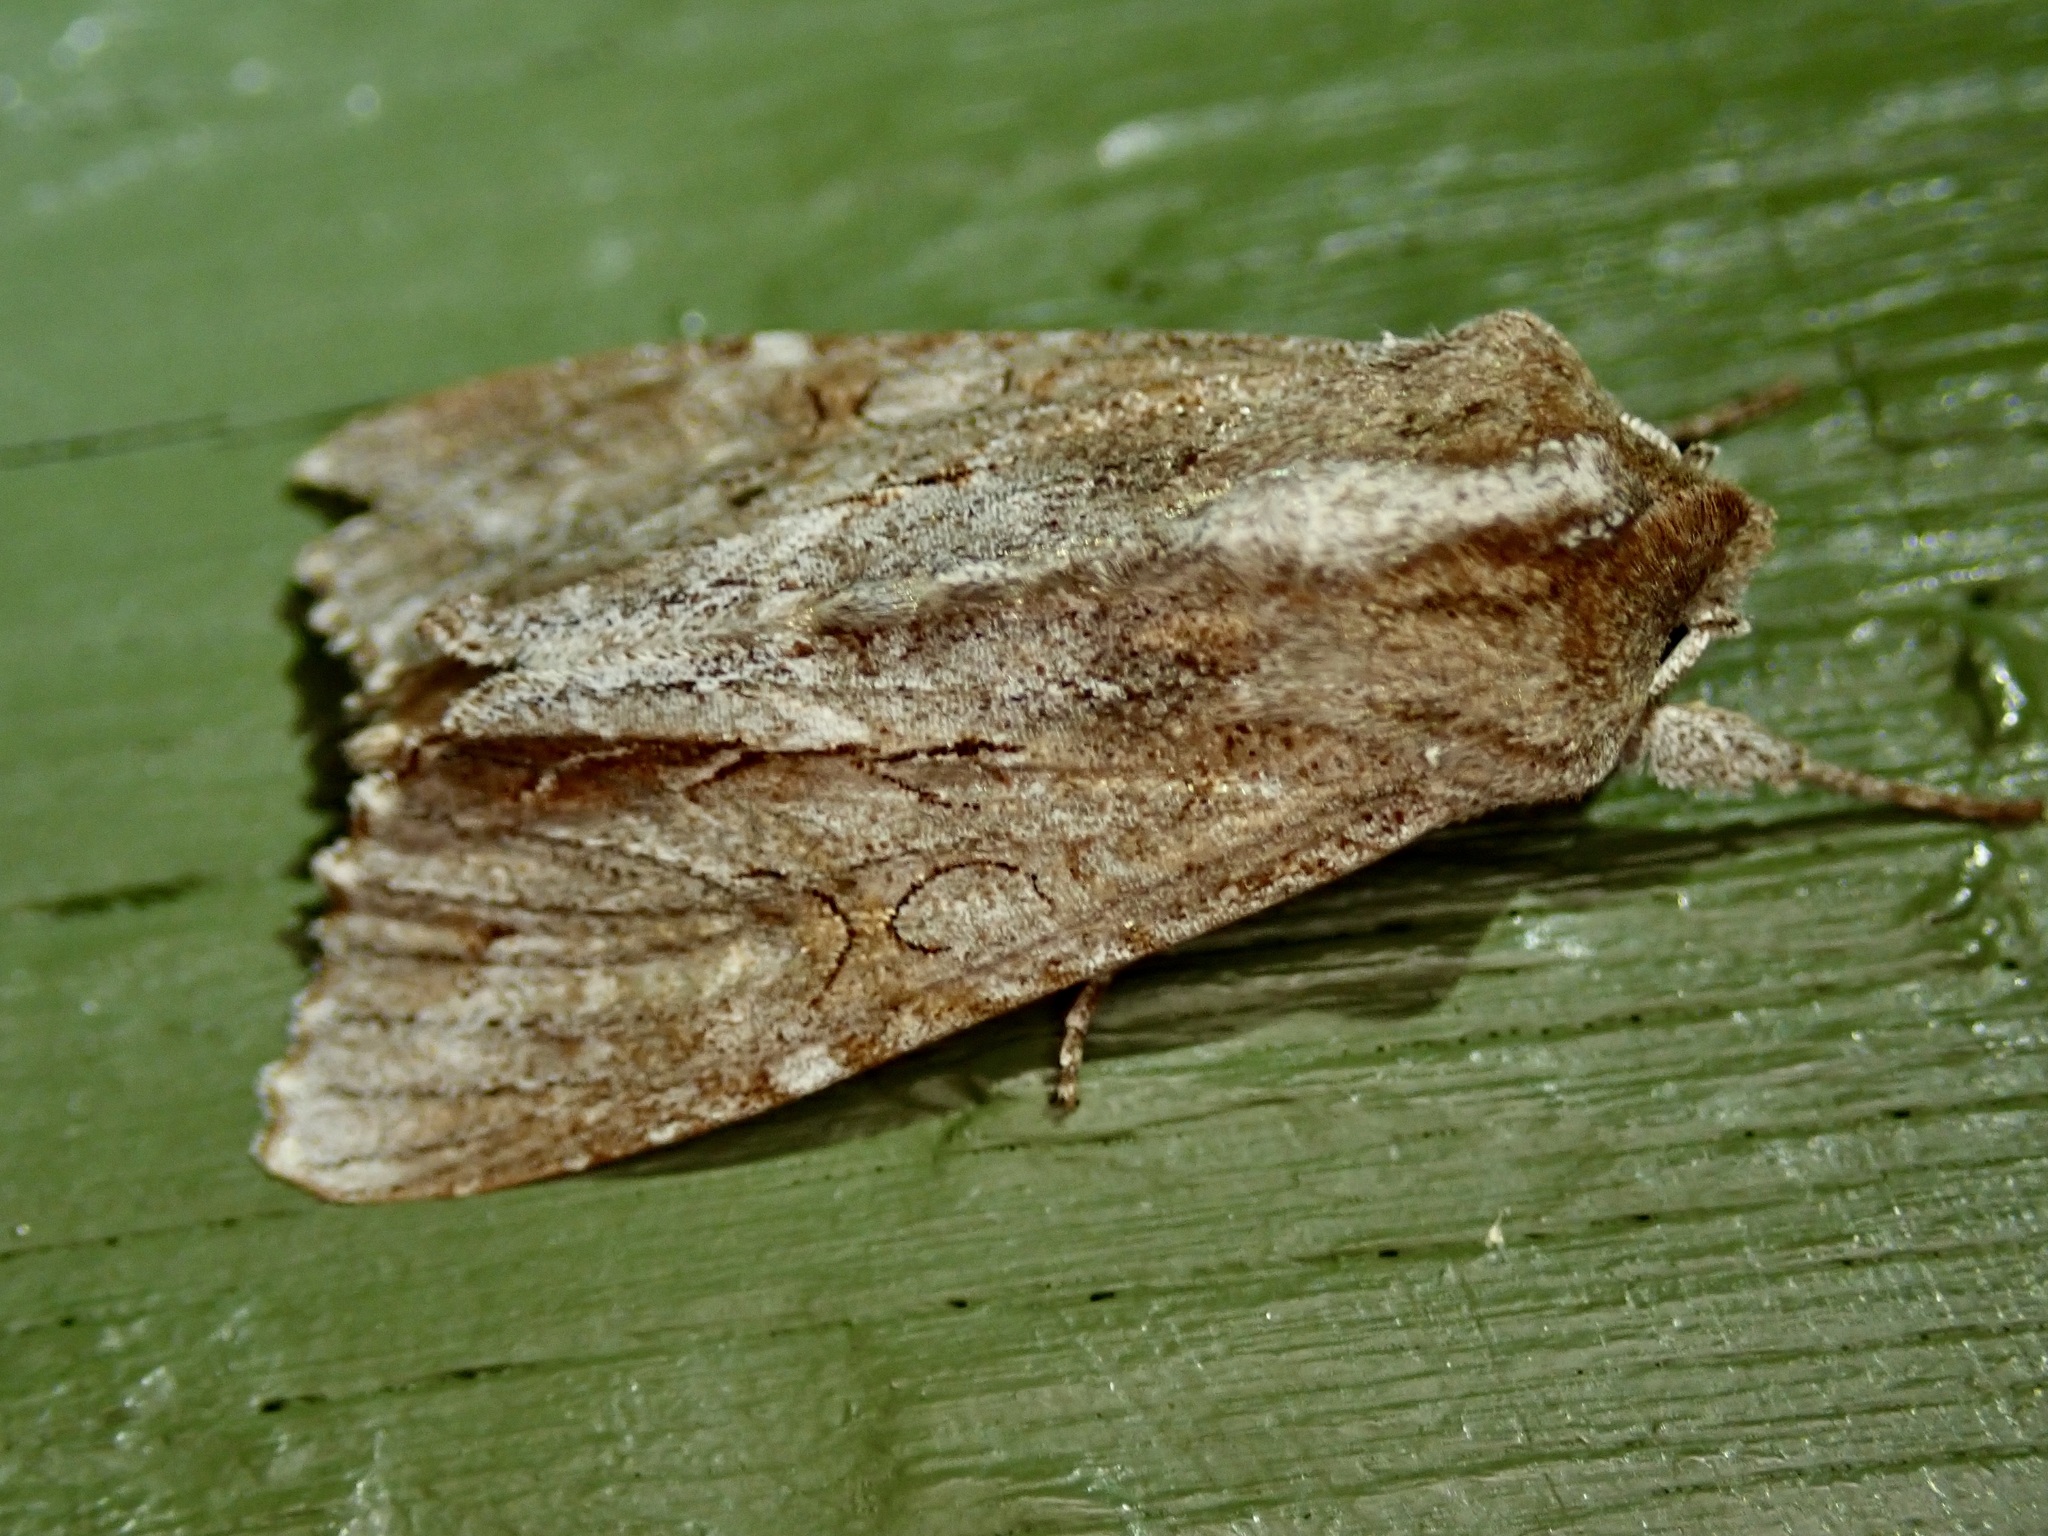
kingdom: Animalia
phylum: Arthropoda
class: Insecta
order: Lepidoptera
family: Noctuidae
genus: Ichneutica
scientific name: Ichneutica
